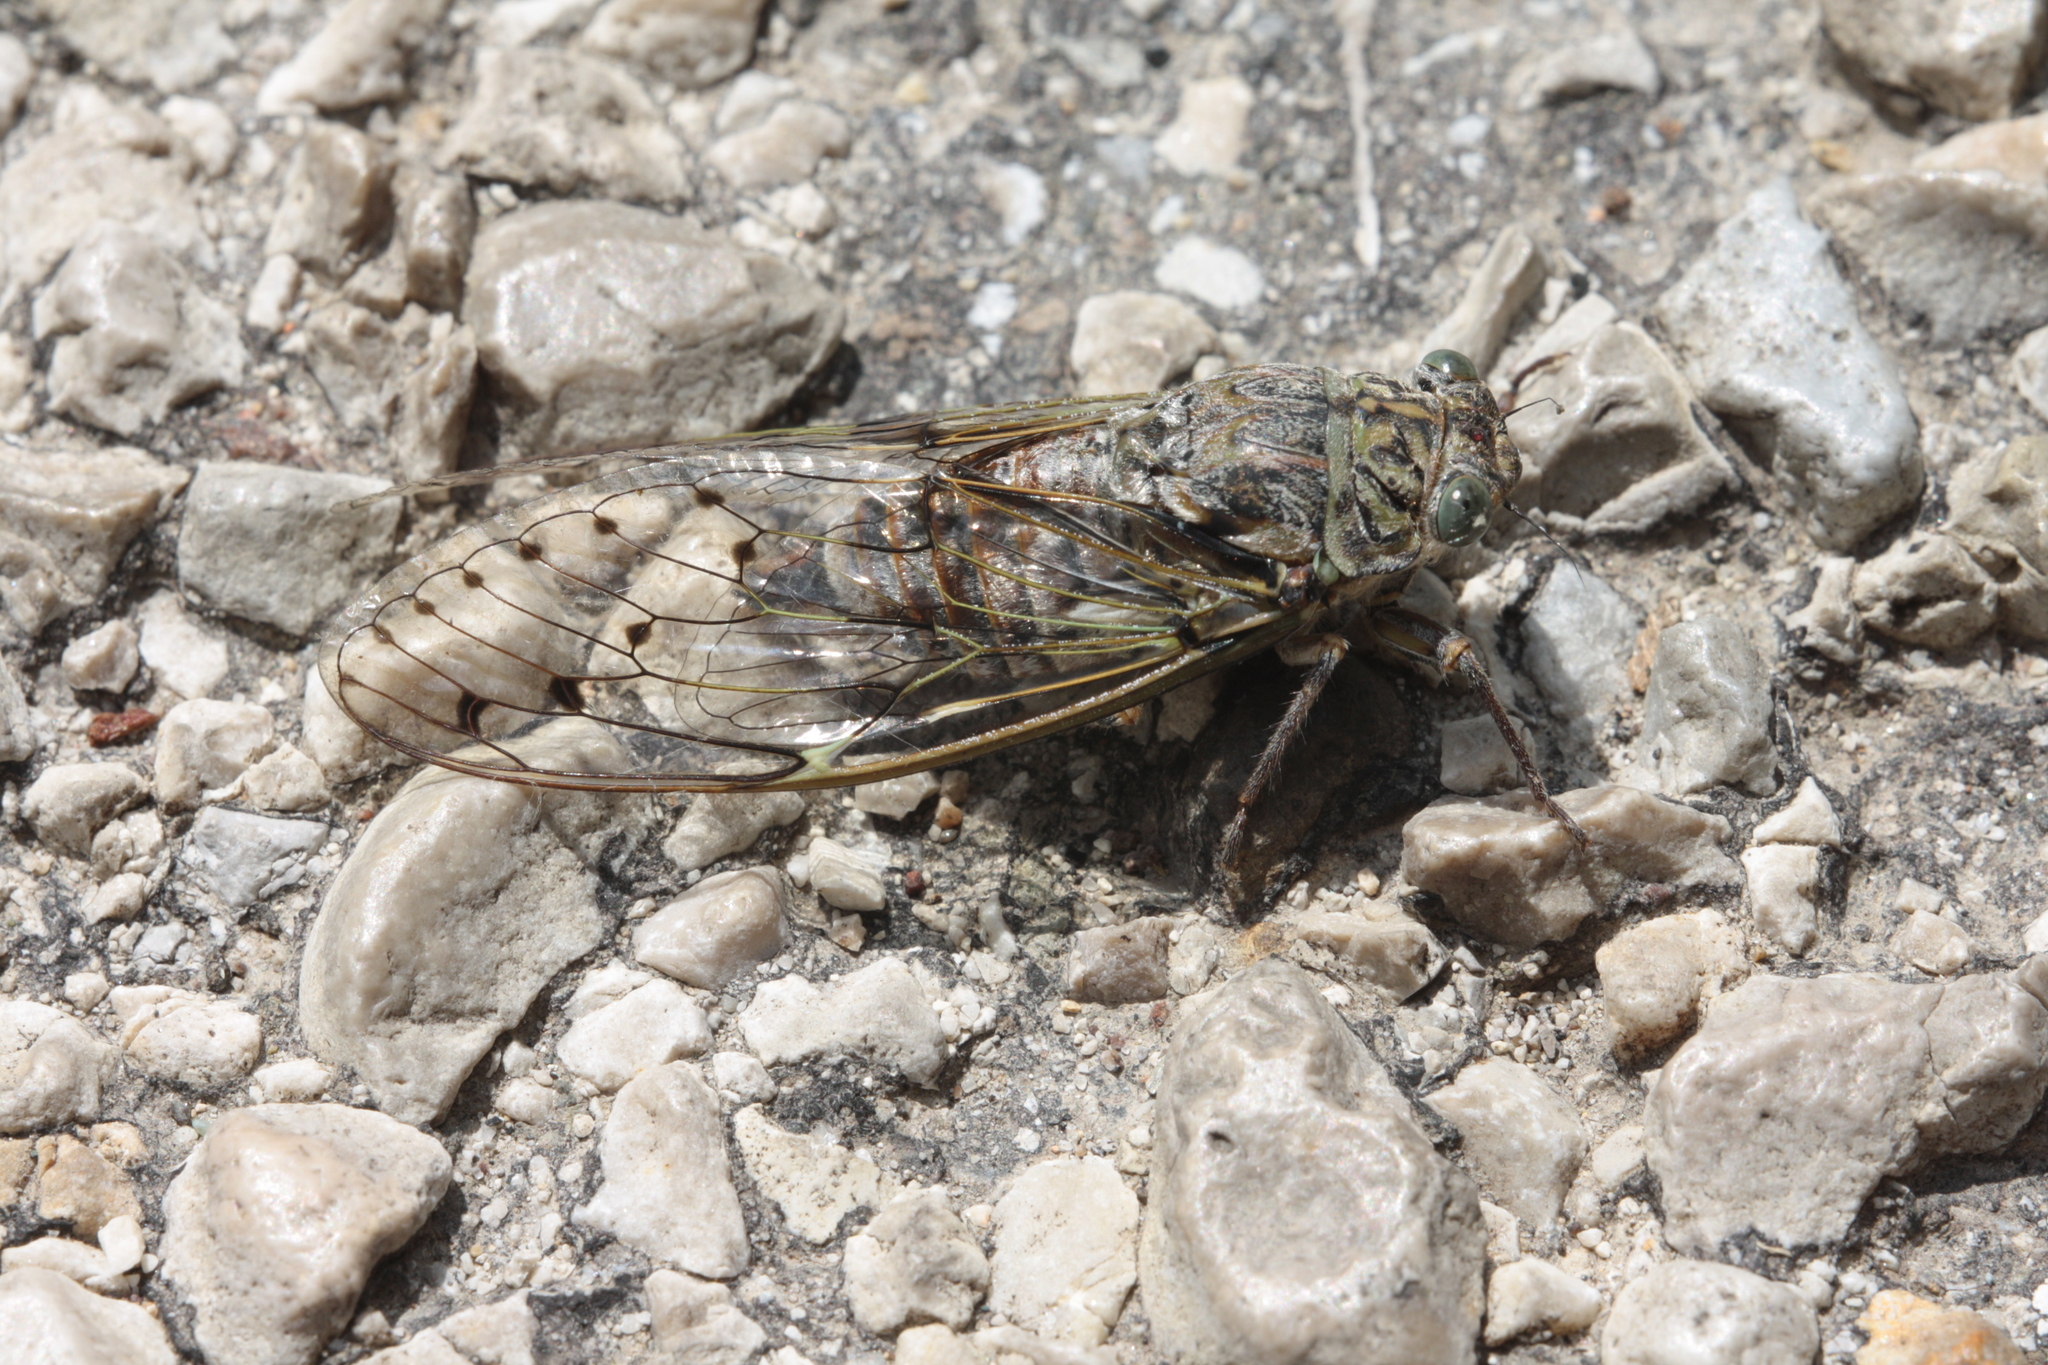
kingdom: Animalia
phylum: Arthropoda
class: Insecta
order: Hemiptera
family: Cicadidae
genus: Cicada
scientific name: Cicada orni
